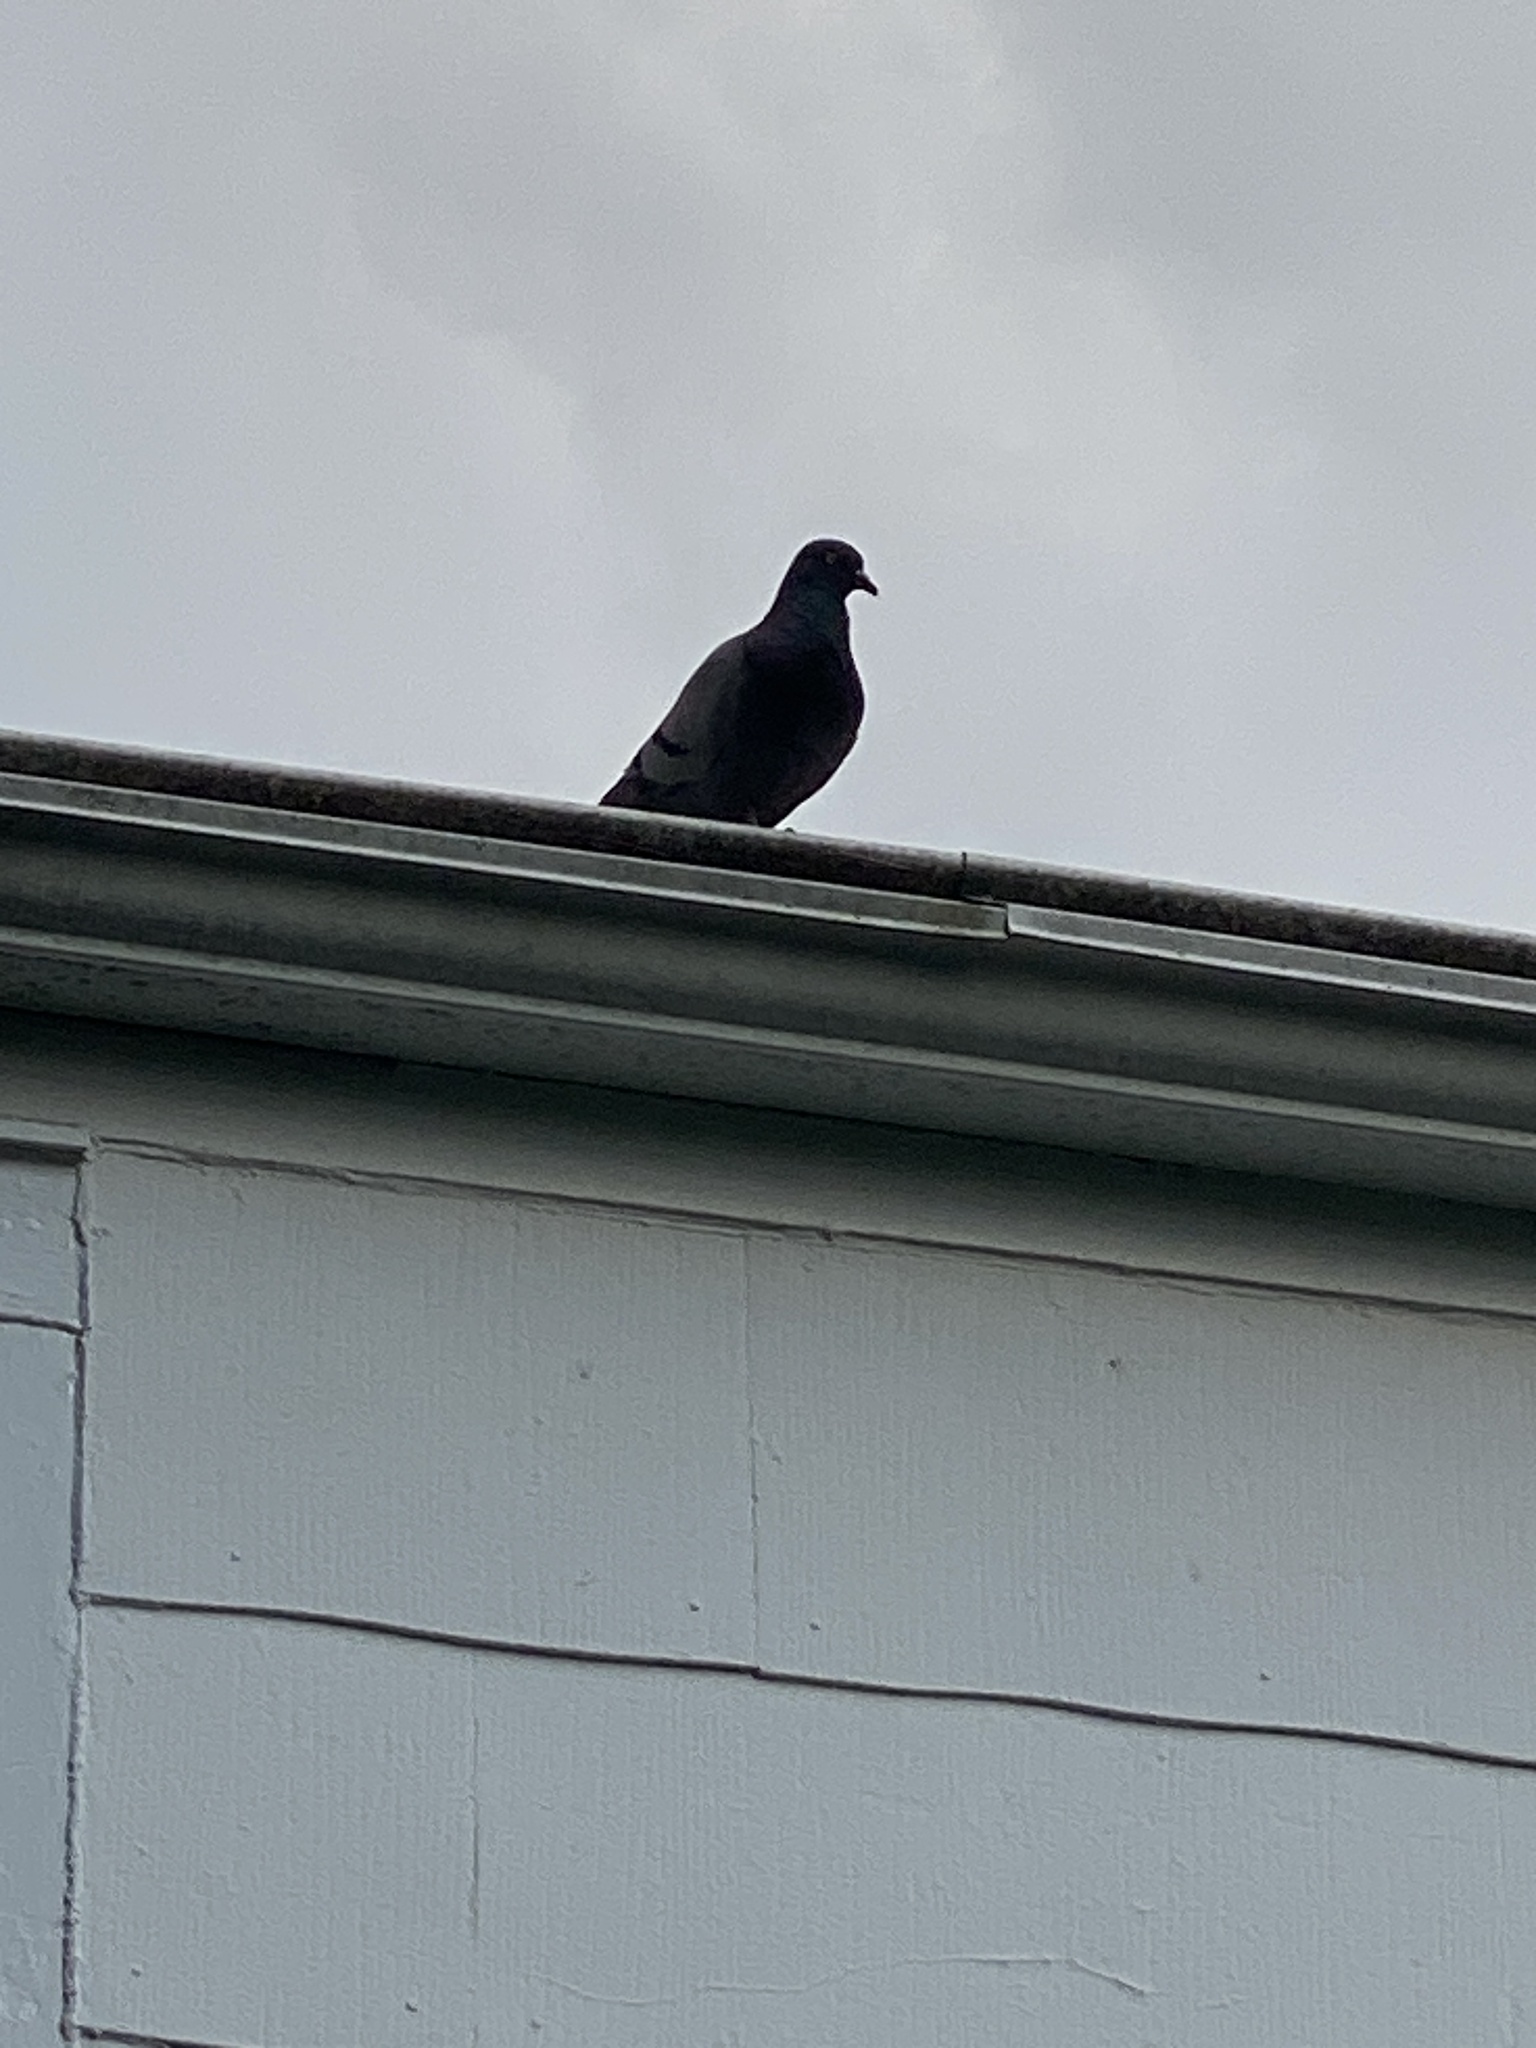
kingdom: Animalia
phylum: Chordata
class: Aves
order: Columbiformes
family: Columbidae
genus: Columba
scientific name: Columba livia
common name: Rock pigeon
